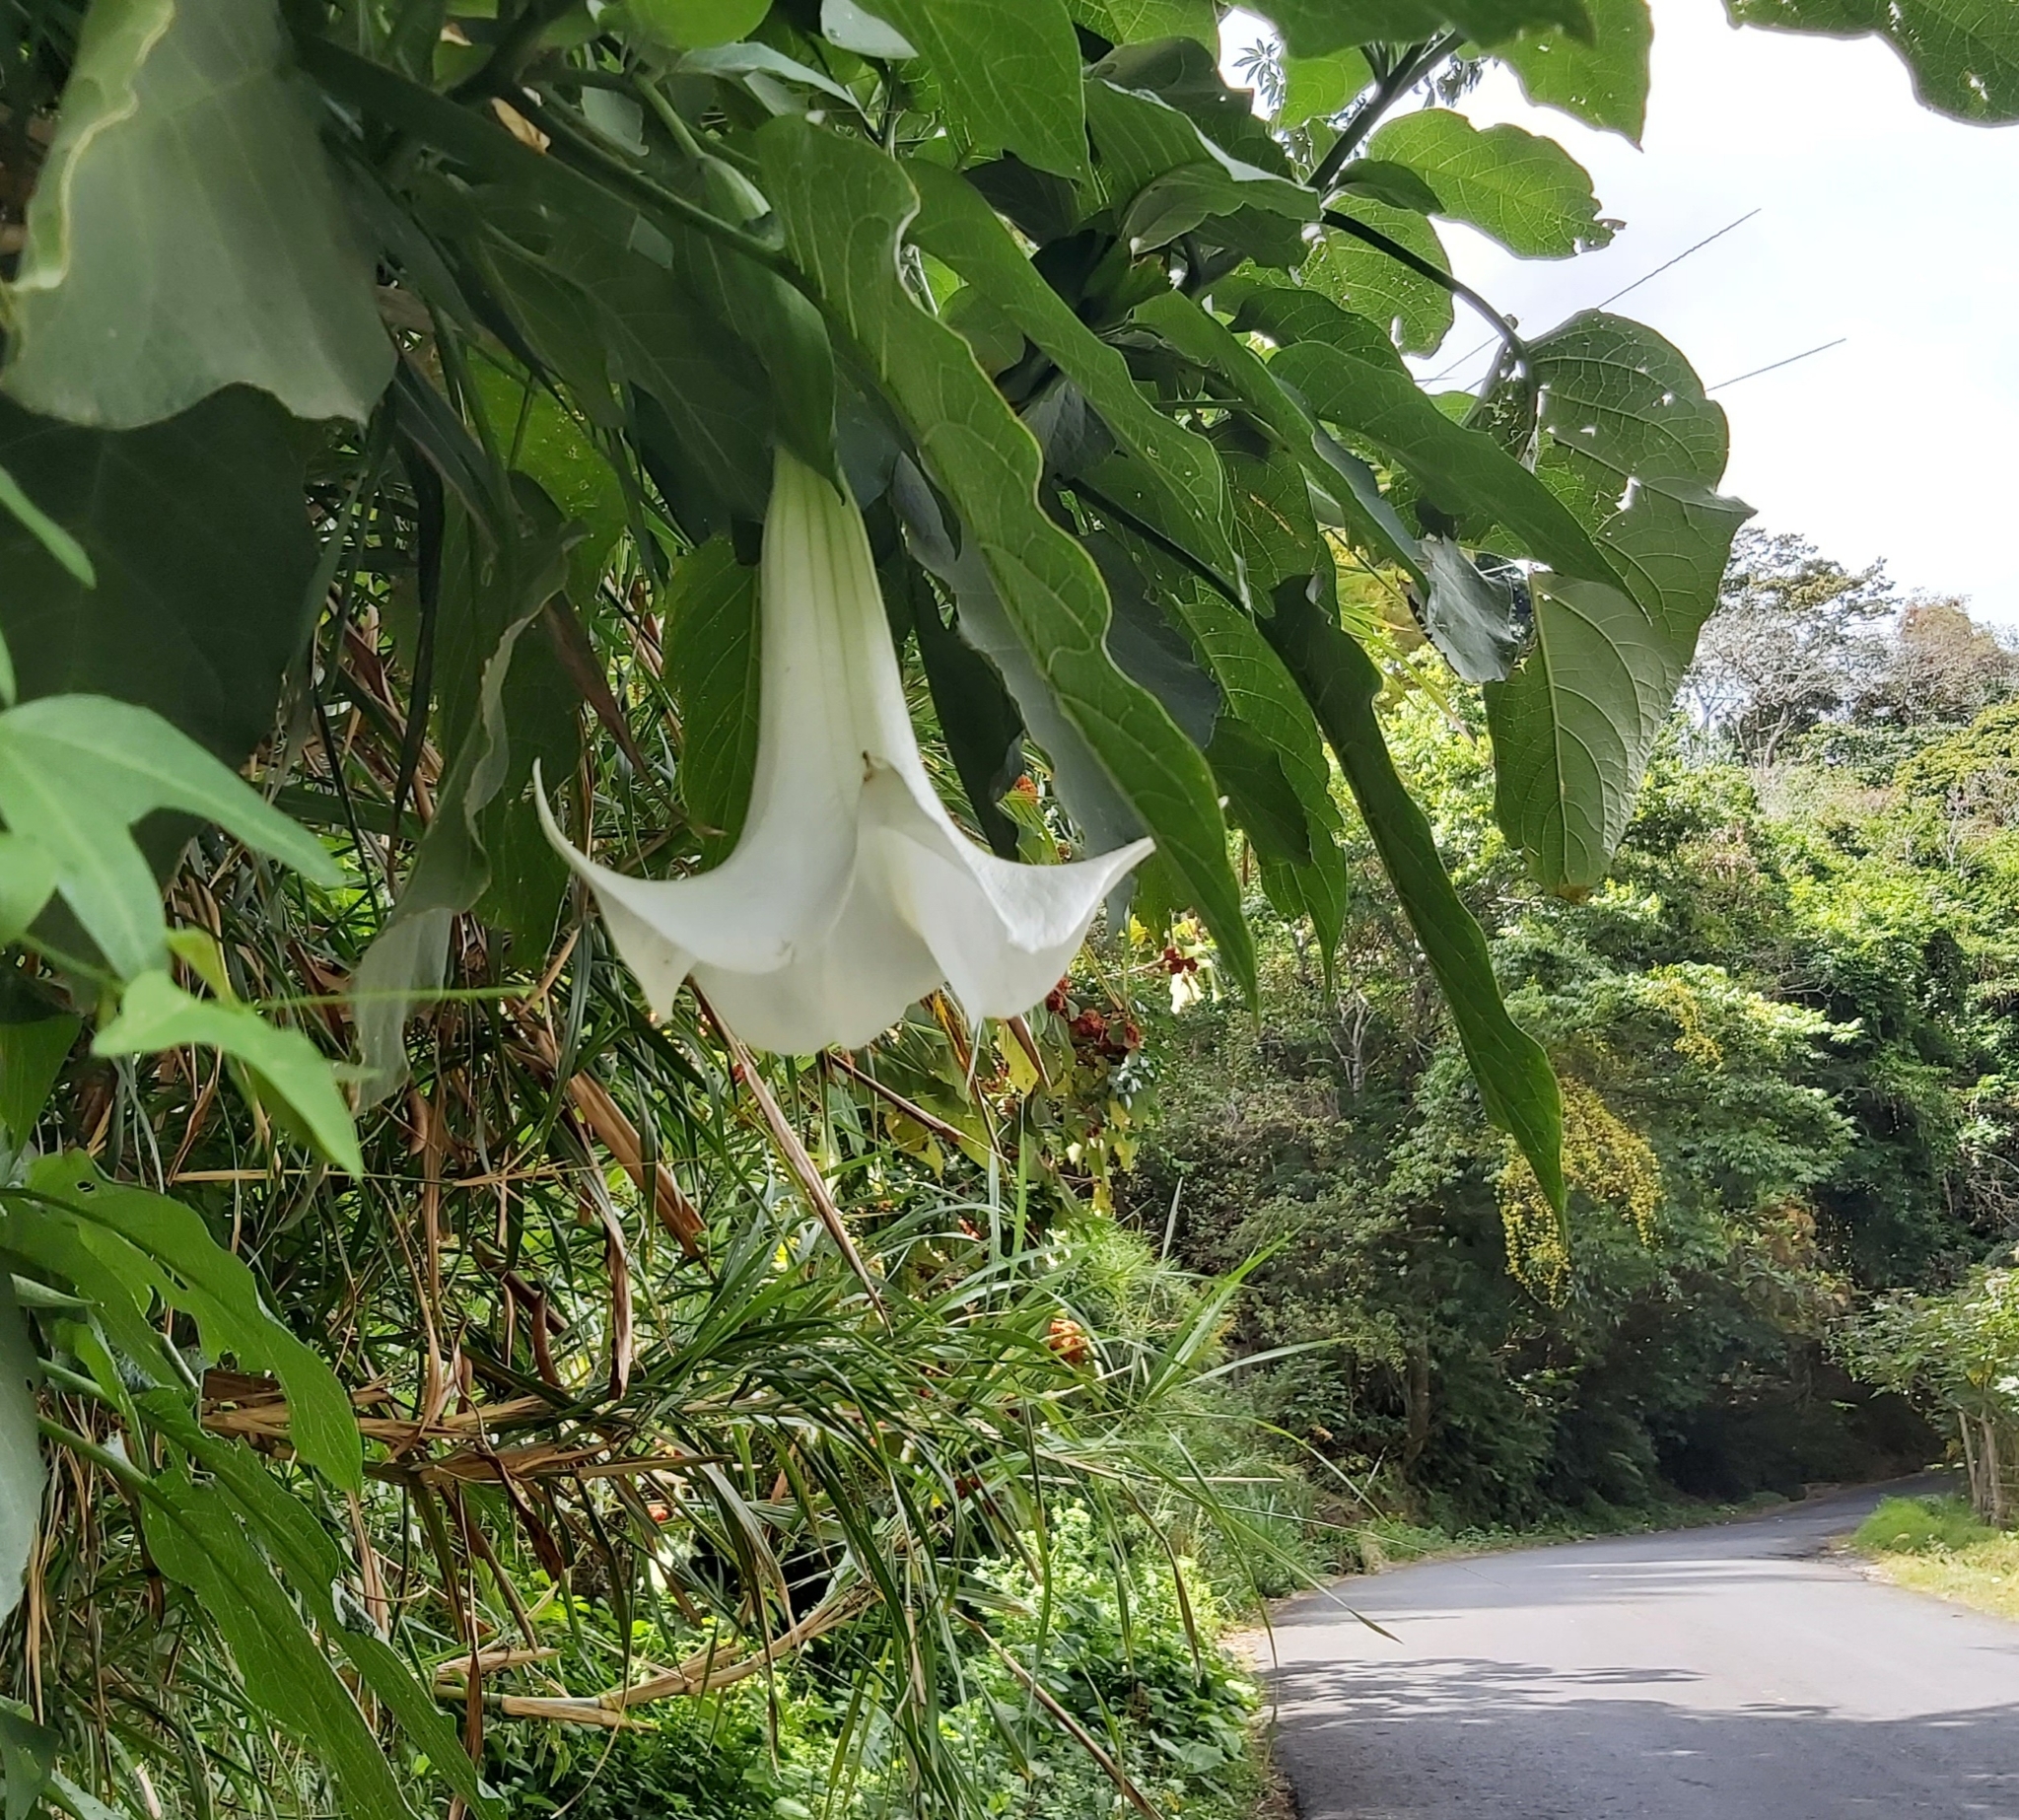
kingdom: Plantae
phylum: Tracheophyta
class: Magnoliopsida
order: Solanales
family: Solanaceae
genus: Brugmansia
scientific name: Brugmansia suaveolens
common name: Angel's tears
